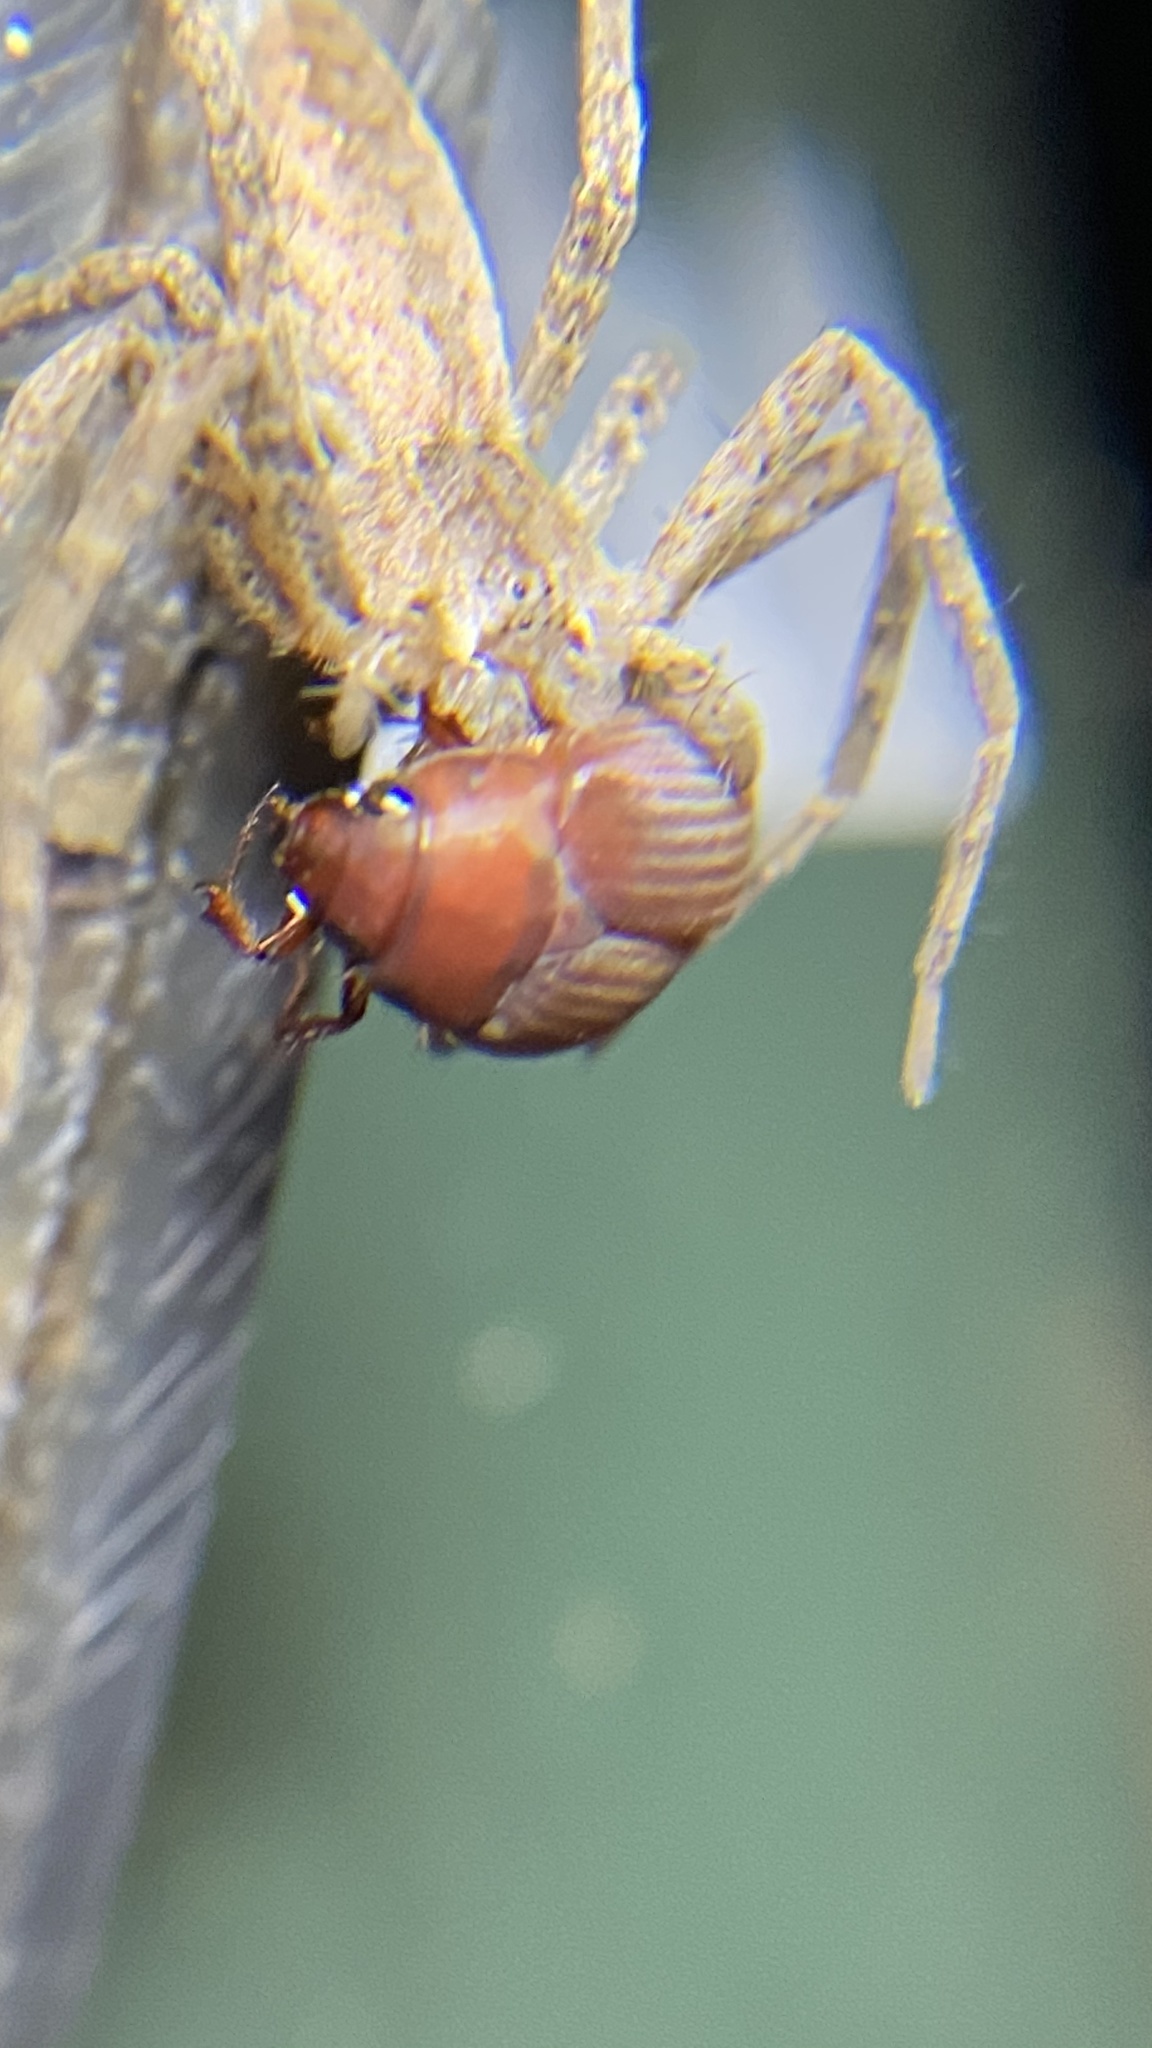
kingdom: Animalia
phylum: Arthropoda
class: Arachnida
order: Araneae
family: Pisauridae
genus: Pisaurina
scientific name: Pisaurina mira
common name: American nursery web spider
